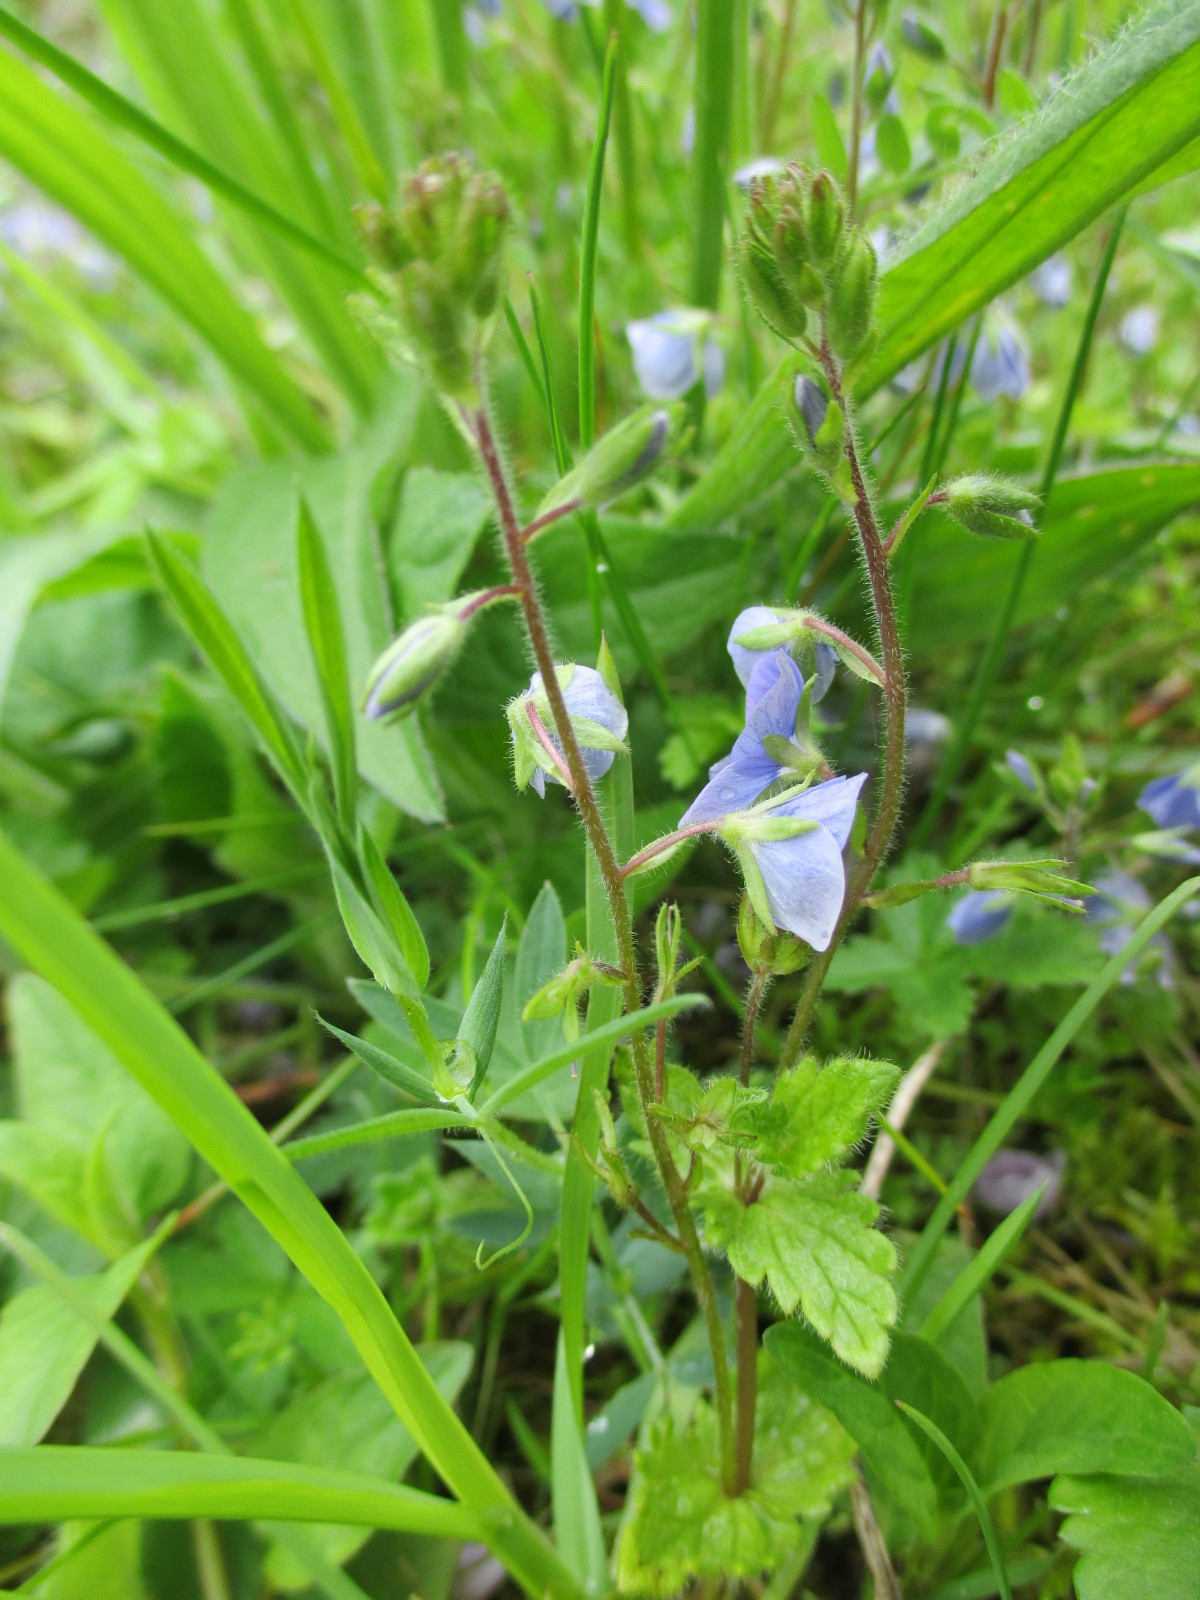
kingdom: Plantae
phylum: Tracheophyta
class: Magnoliopsida
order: Lamiales
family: Plantaginaceae
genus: Veronica
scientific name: Veronica chamaedrys
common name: Germander speedwell
